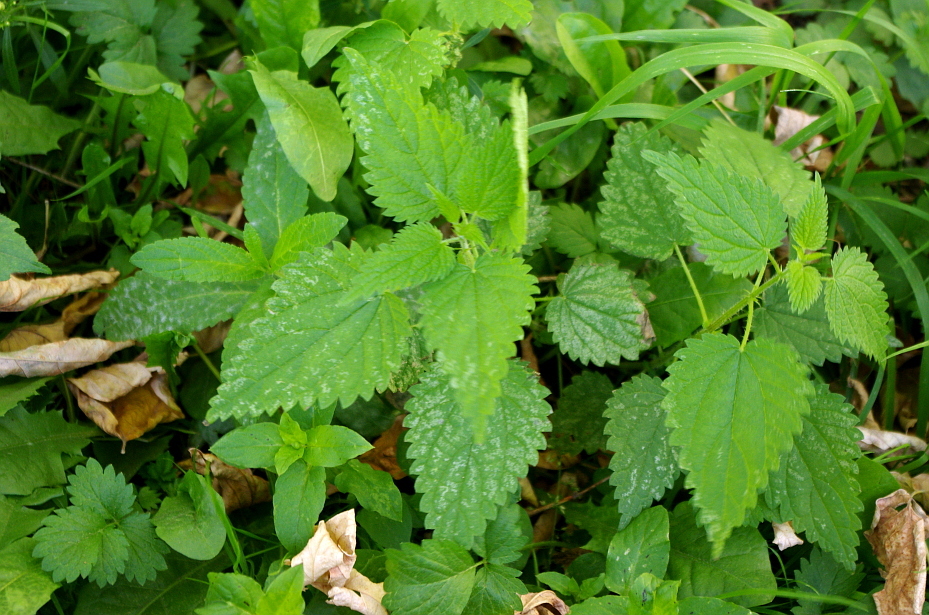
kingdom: Plantae
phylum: Tracheophyta
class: Magnoliopsida
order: Rosales
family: Urticaceae
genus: Urtica
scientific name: Urtica dioica
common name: Common nettle
